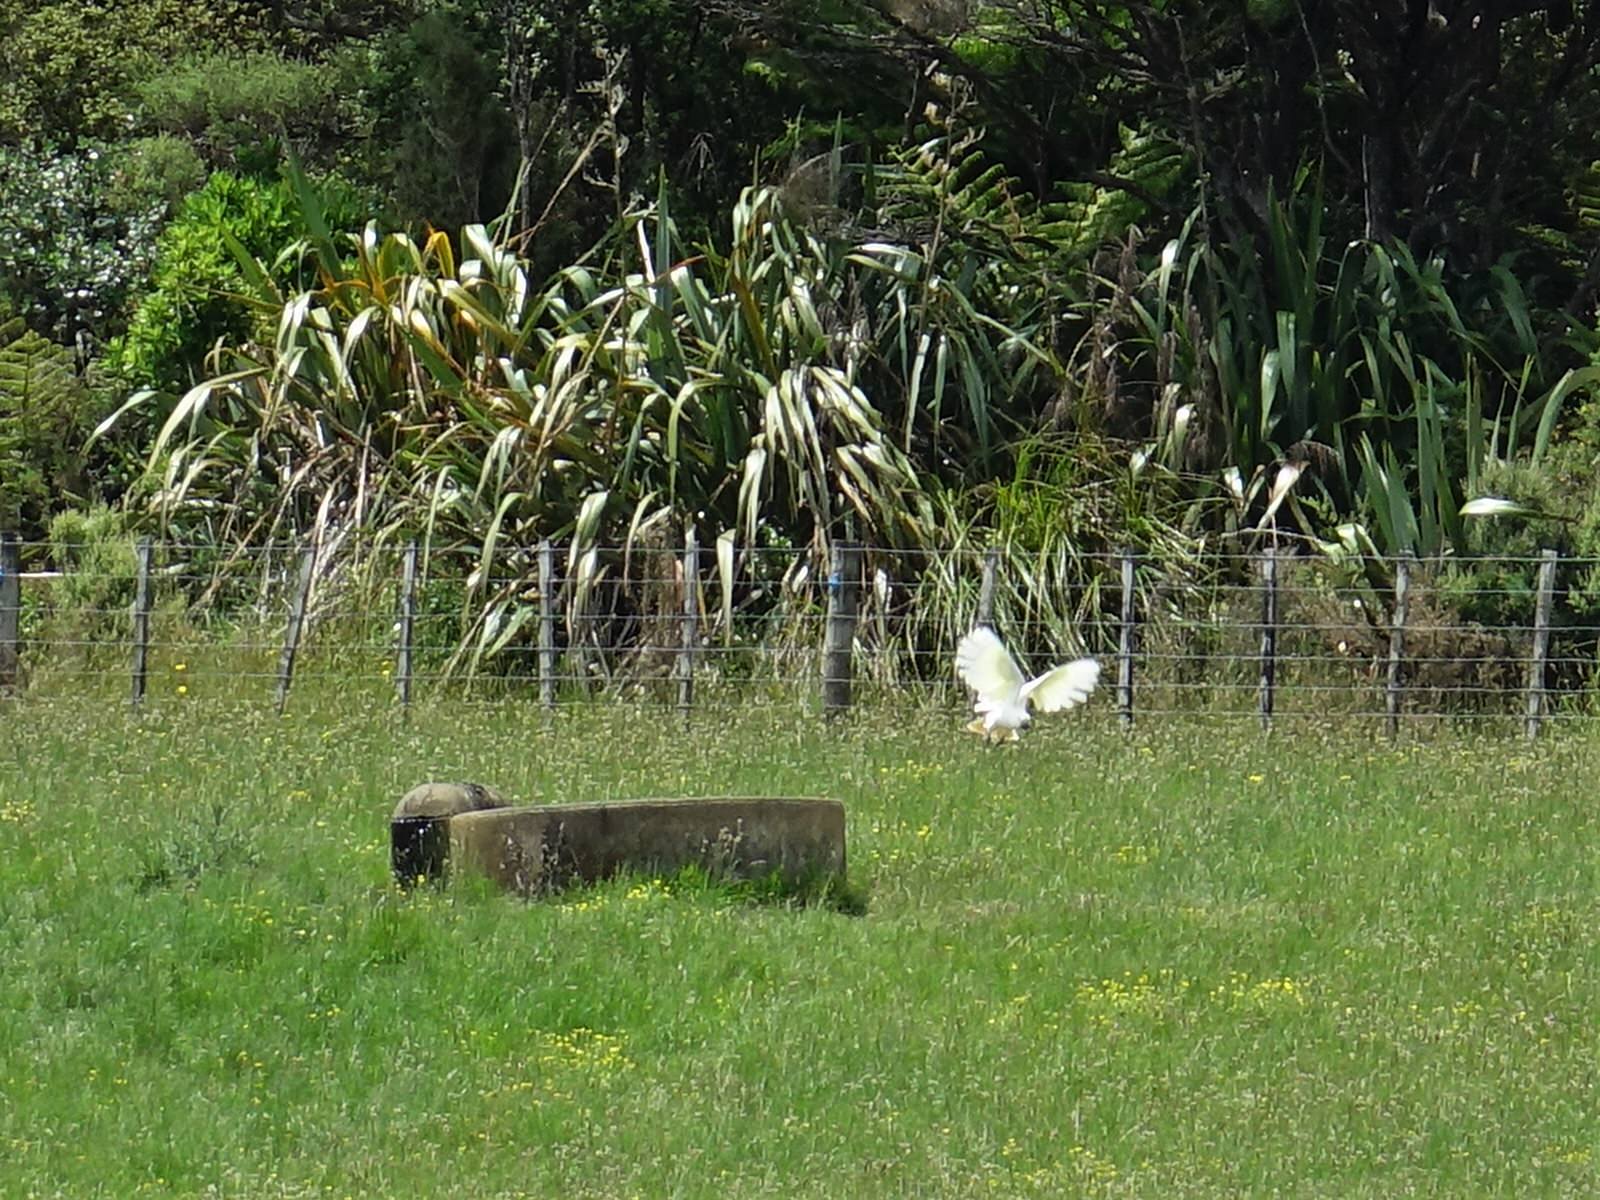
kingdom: Animalia
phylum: Chordata
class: Aves
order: Psittaciformes
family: Psittacidae
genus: Cacatua
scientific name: Cacatua galerita
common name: Sulphur-crested cockatoo
